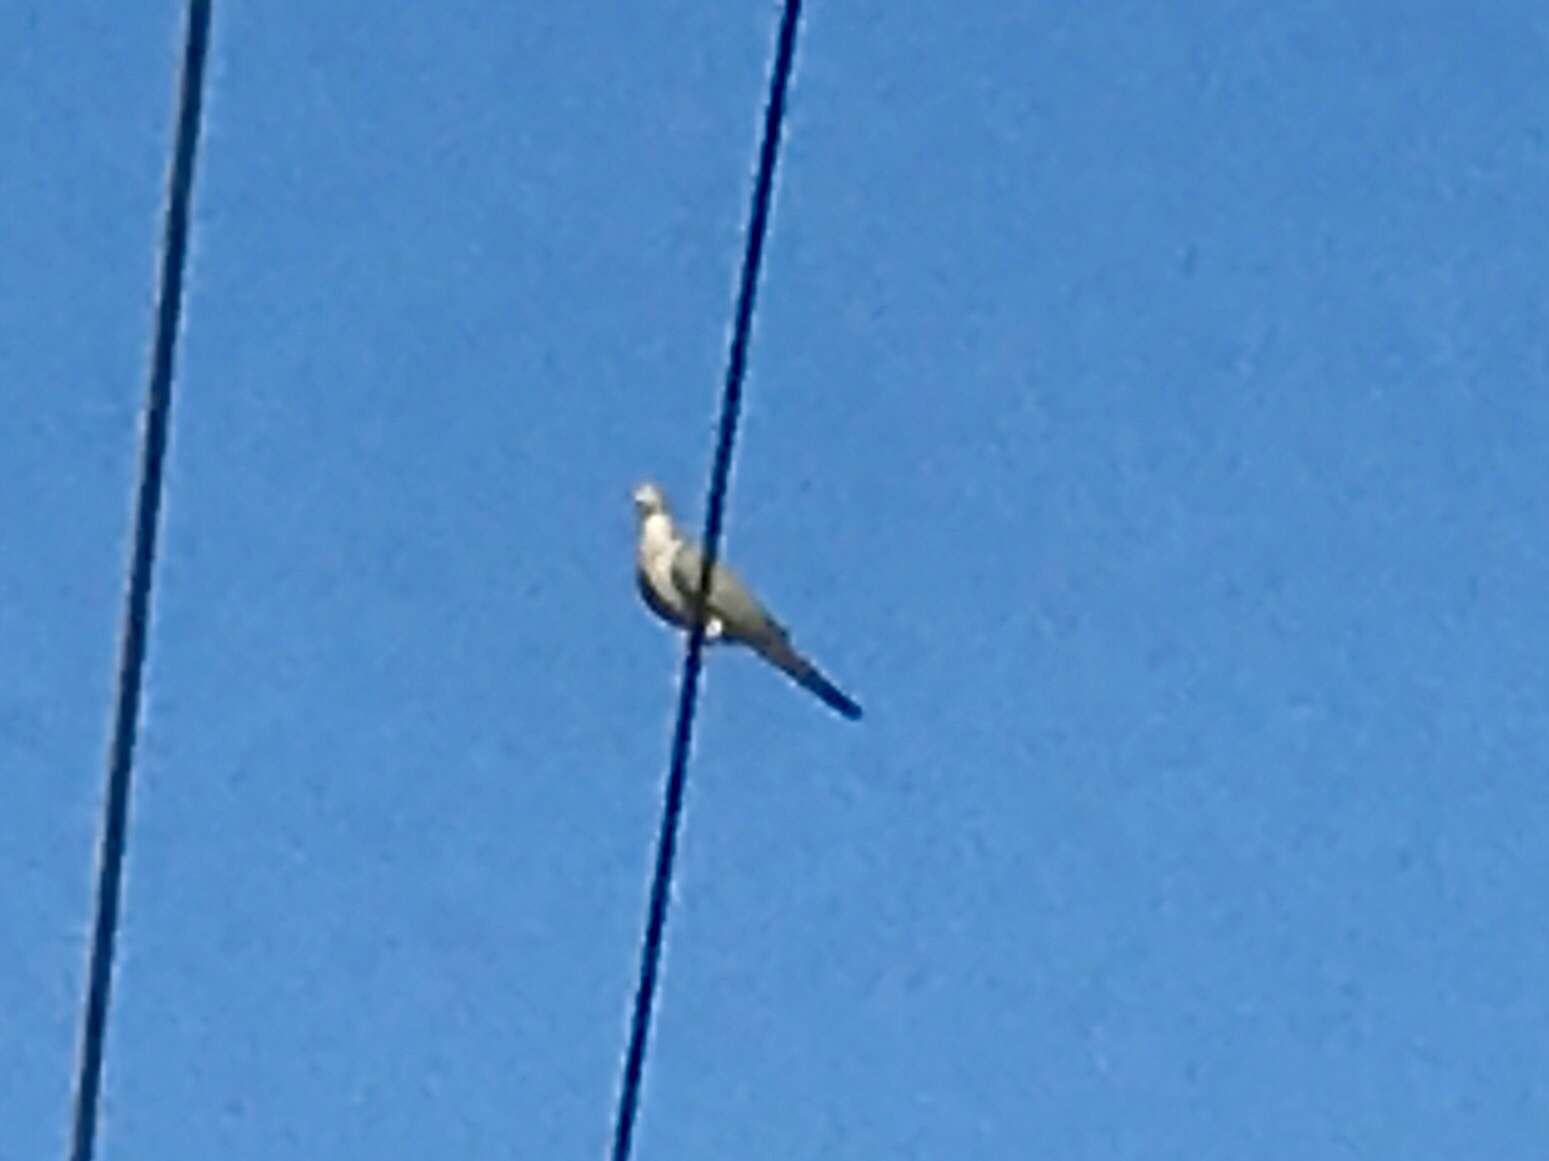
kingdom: Animalia
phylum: Chordata
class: Aves
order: Columbiformes
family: Columbidae
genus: Zenaida
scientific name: Zenaida macroura
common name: Mourning dove
